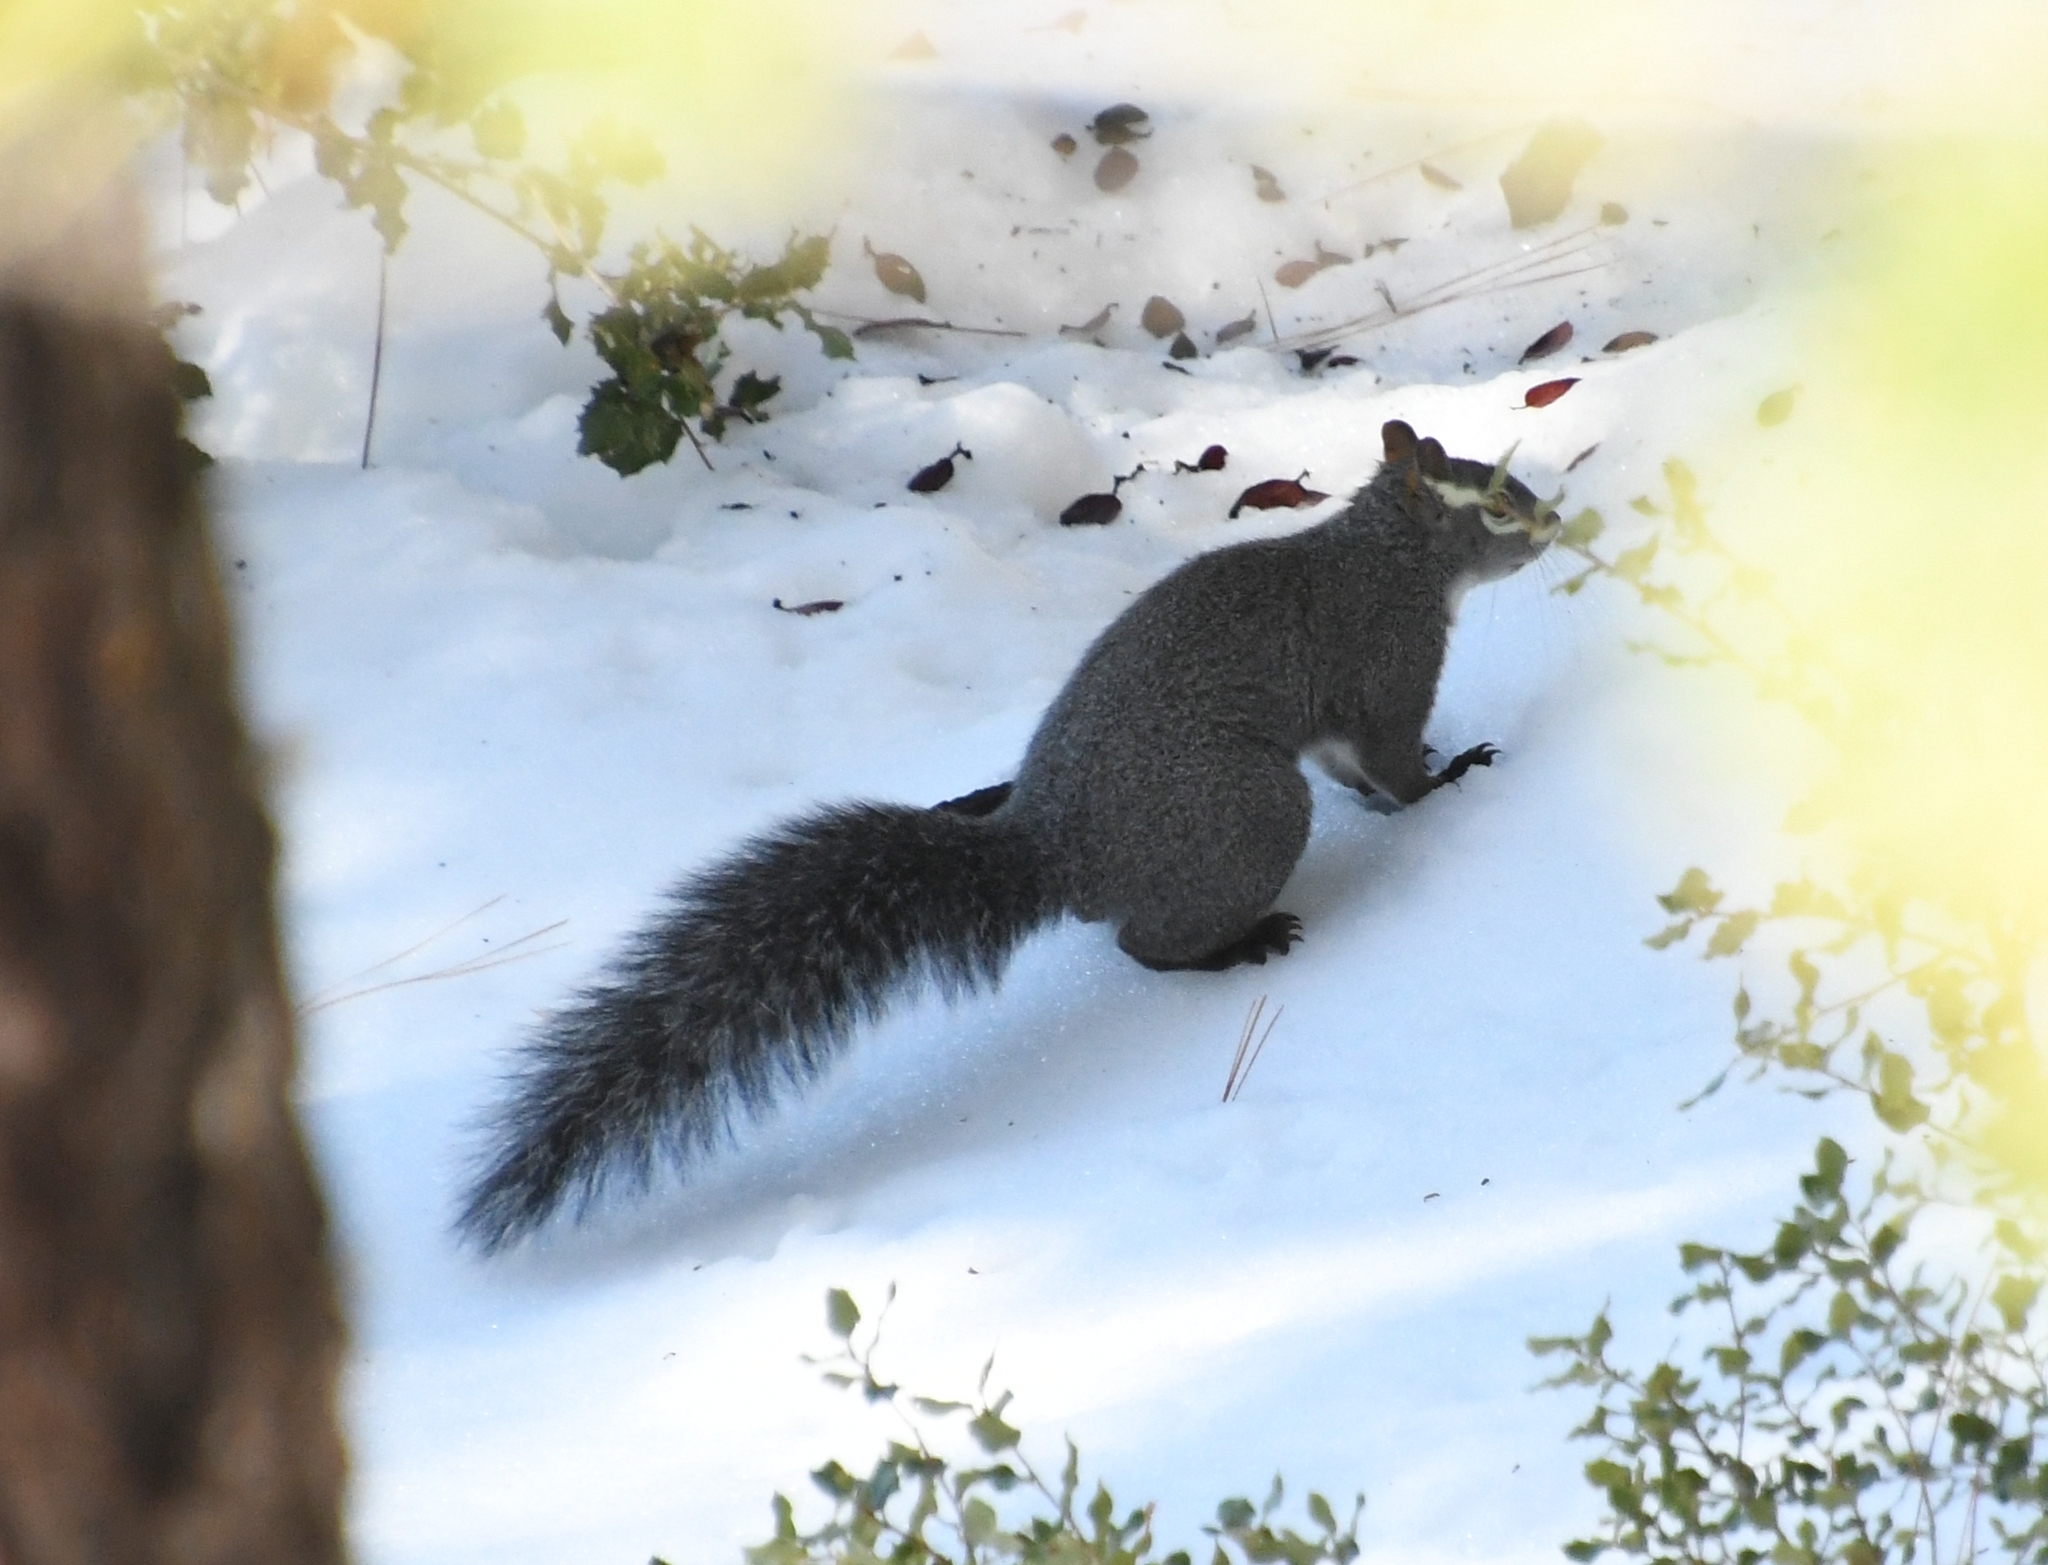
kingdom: Animalia
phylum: Chordata
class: Mammalia
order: Rodentia
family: Sciuridae
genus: Sciurus
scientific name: Sciurus griseus
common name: Western gray squirrel
